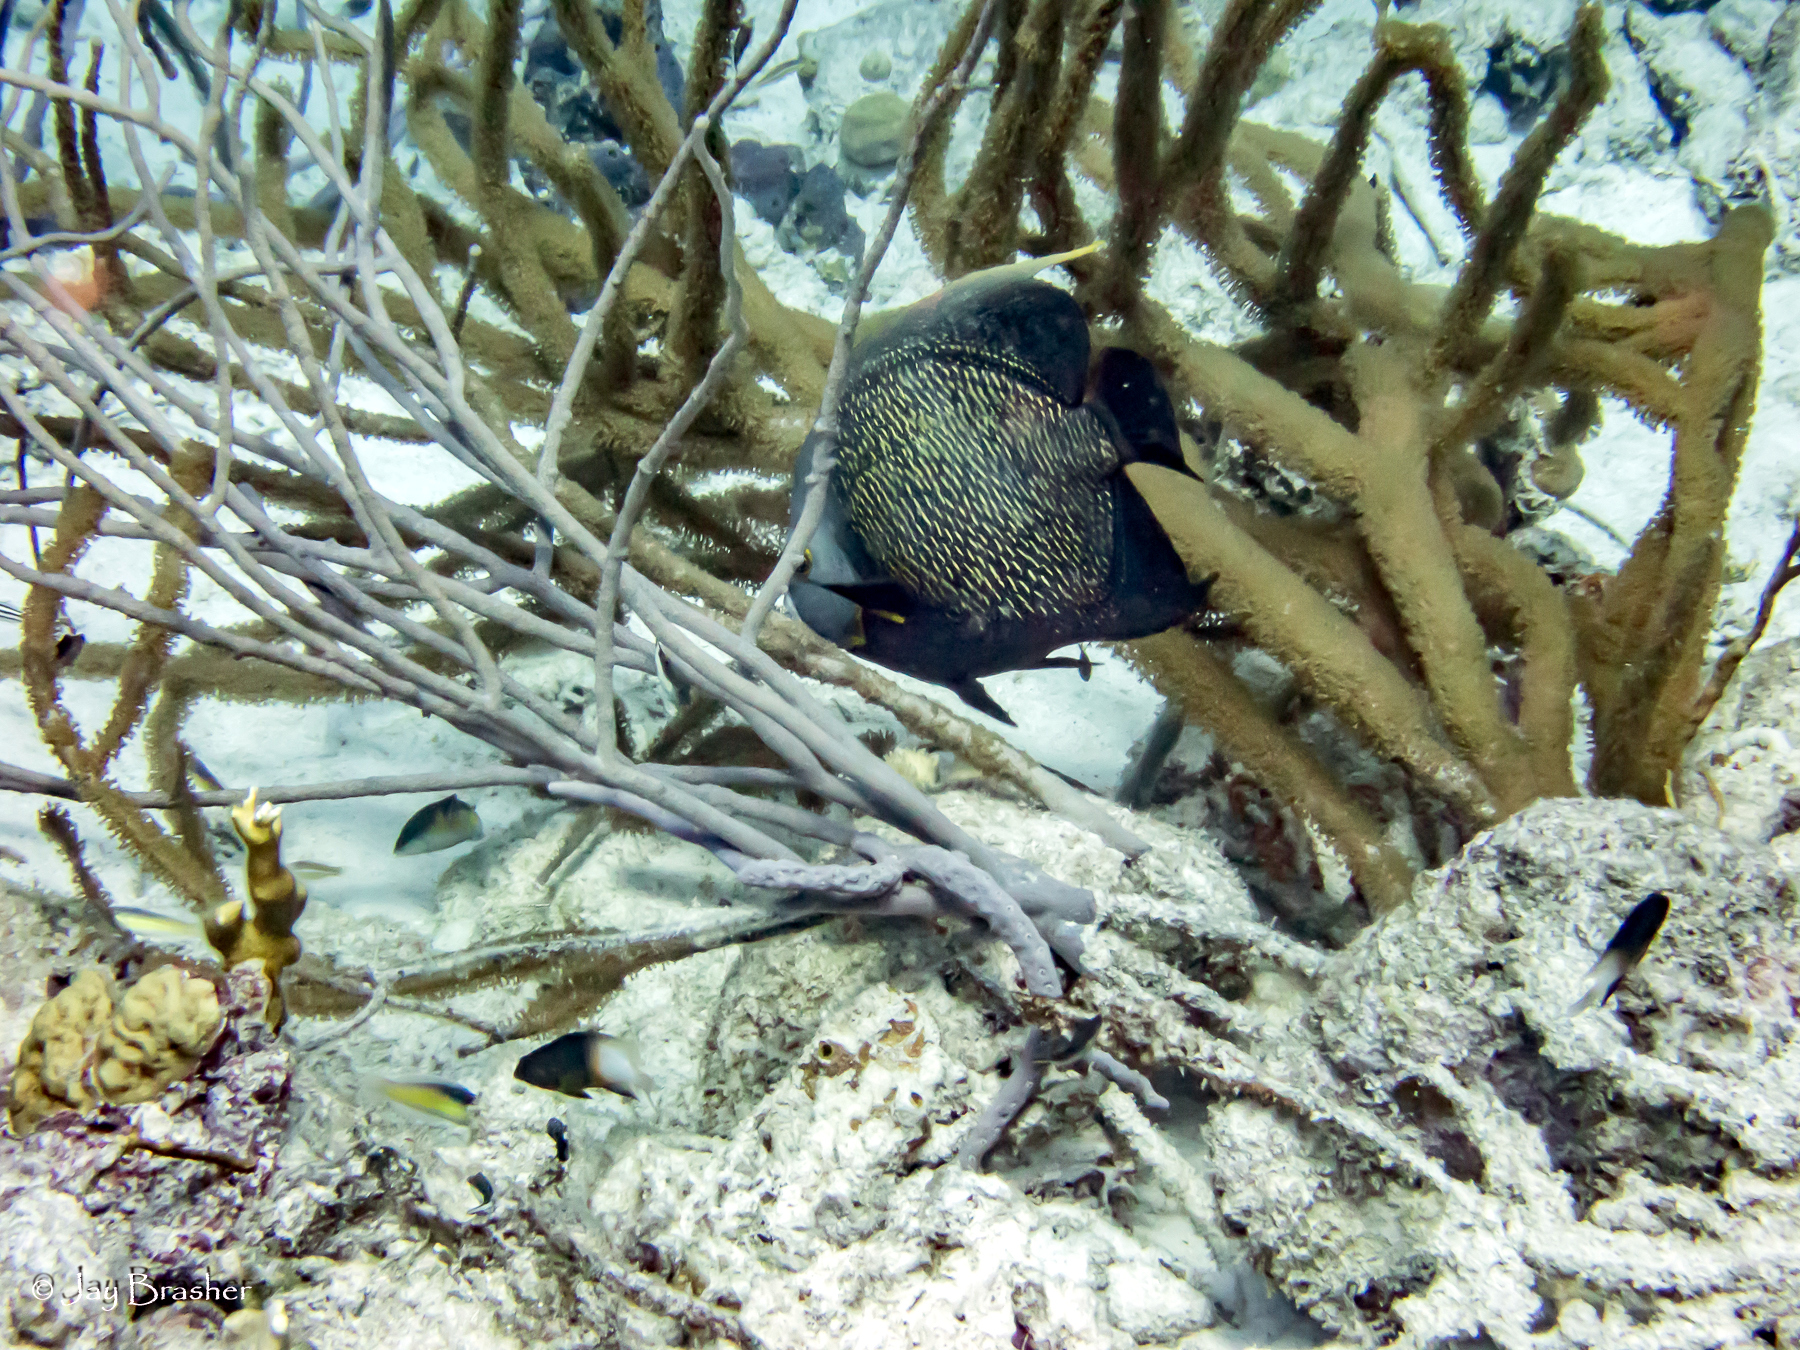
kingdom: Animalia
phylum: Chordata
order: Perciformes
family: Pomacanthidae
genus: Pomacanthus
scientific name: Pomacanthus paru
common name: French angelfish
